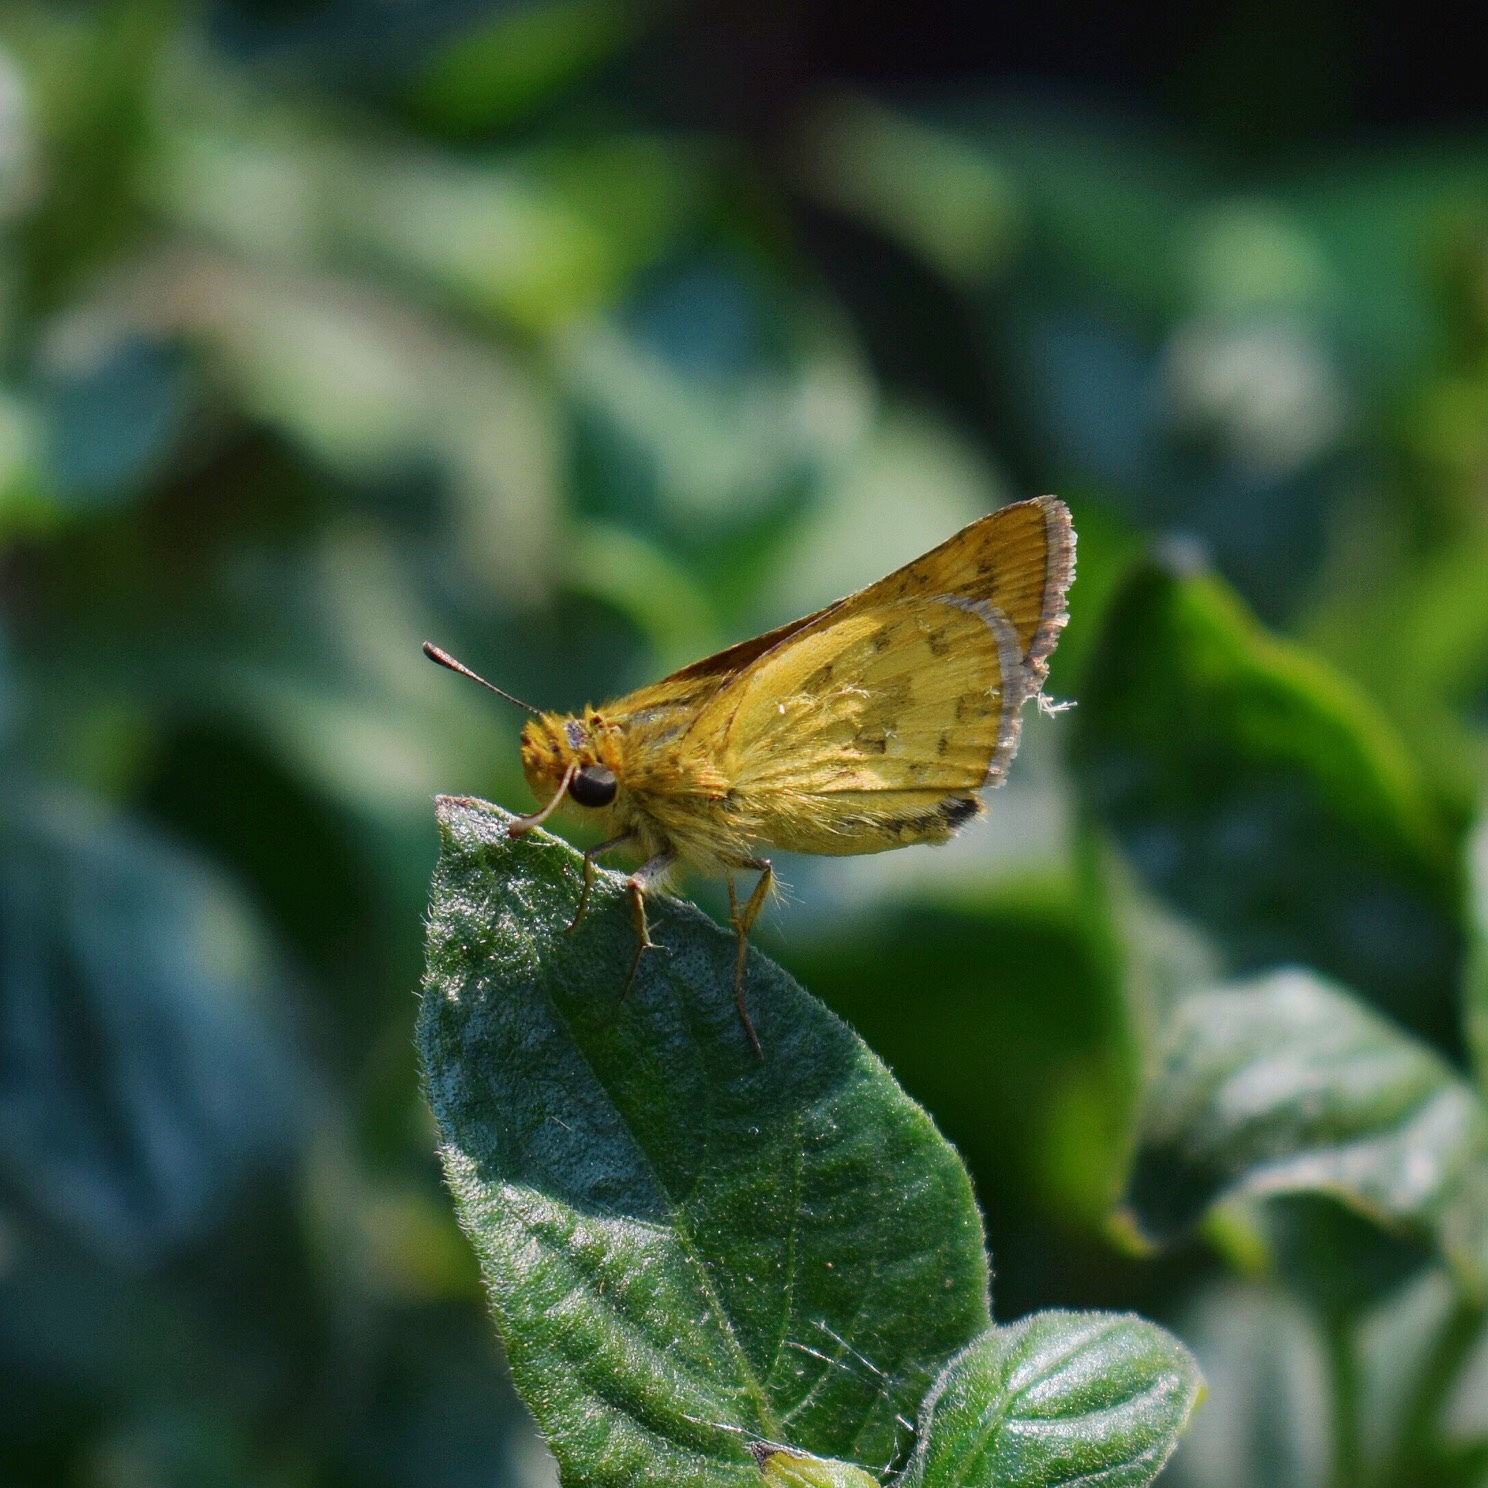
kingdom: Animalia
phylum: Arthropoda
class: Insecta
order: Hymenoptera
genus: Afrogenes
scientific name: Afrogenes
